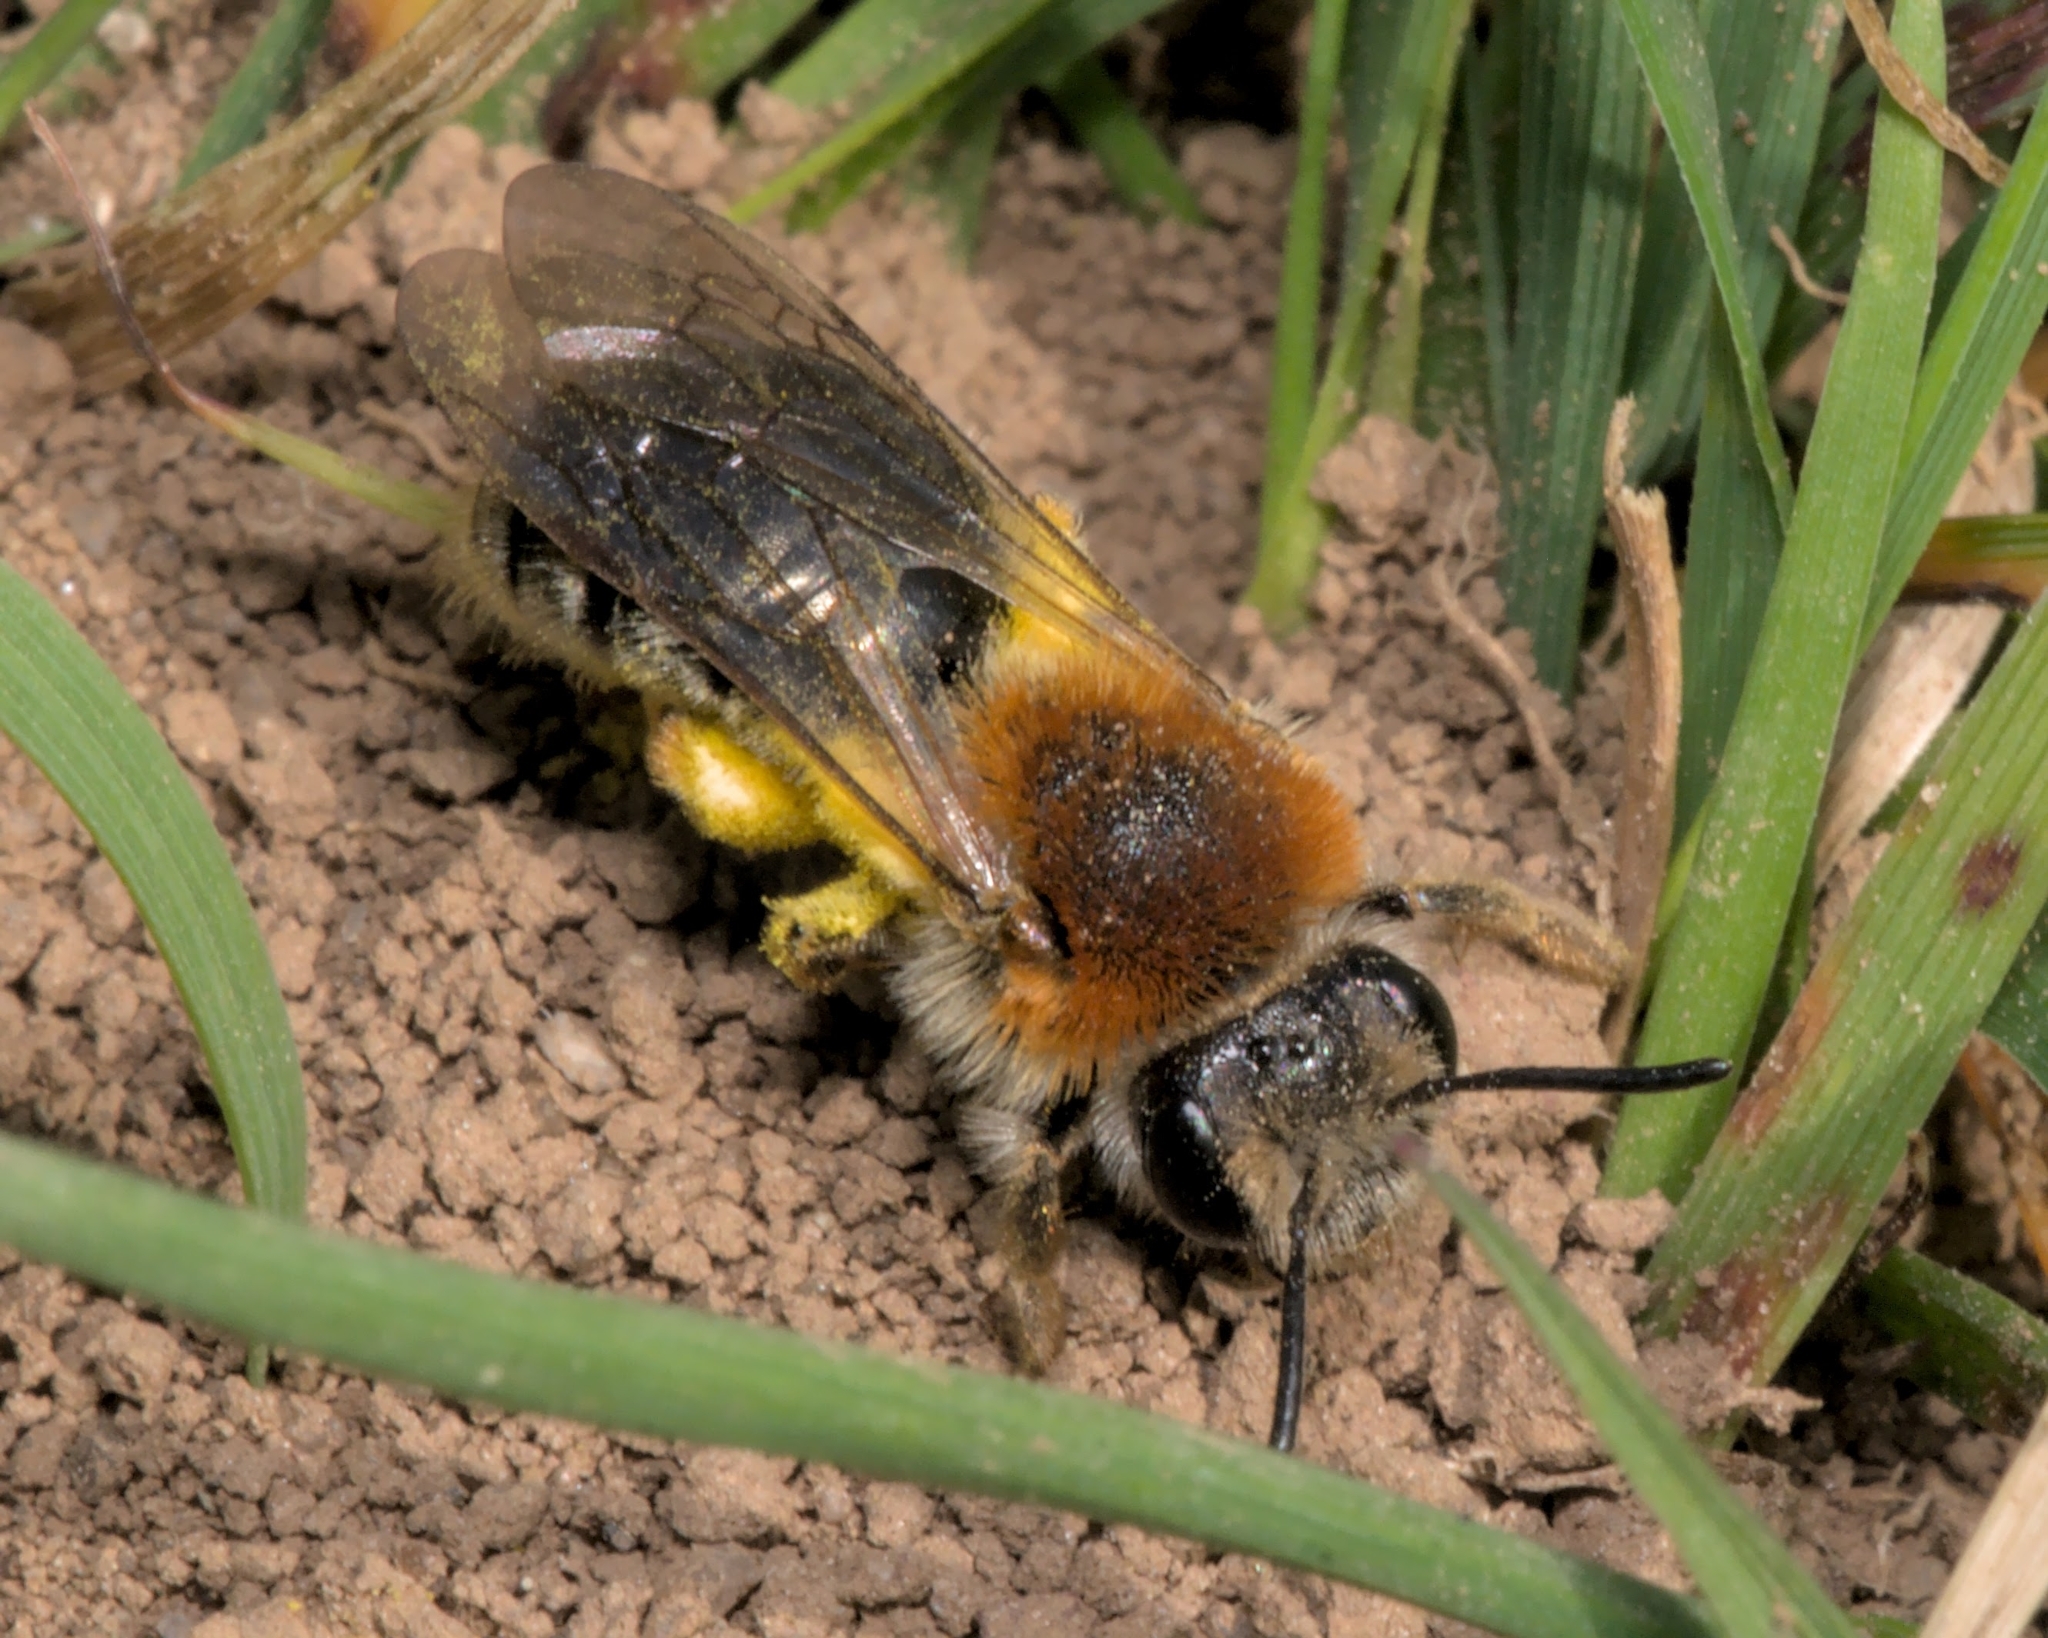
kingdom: Animalia
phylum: Arthropoda
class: Insecta
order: Hymenoptera
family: Andrenidae
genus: Andrena
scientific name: Andrena haemorrhoa
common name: Early mining bee
